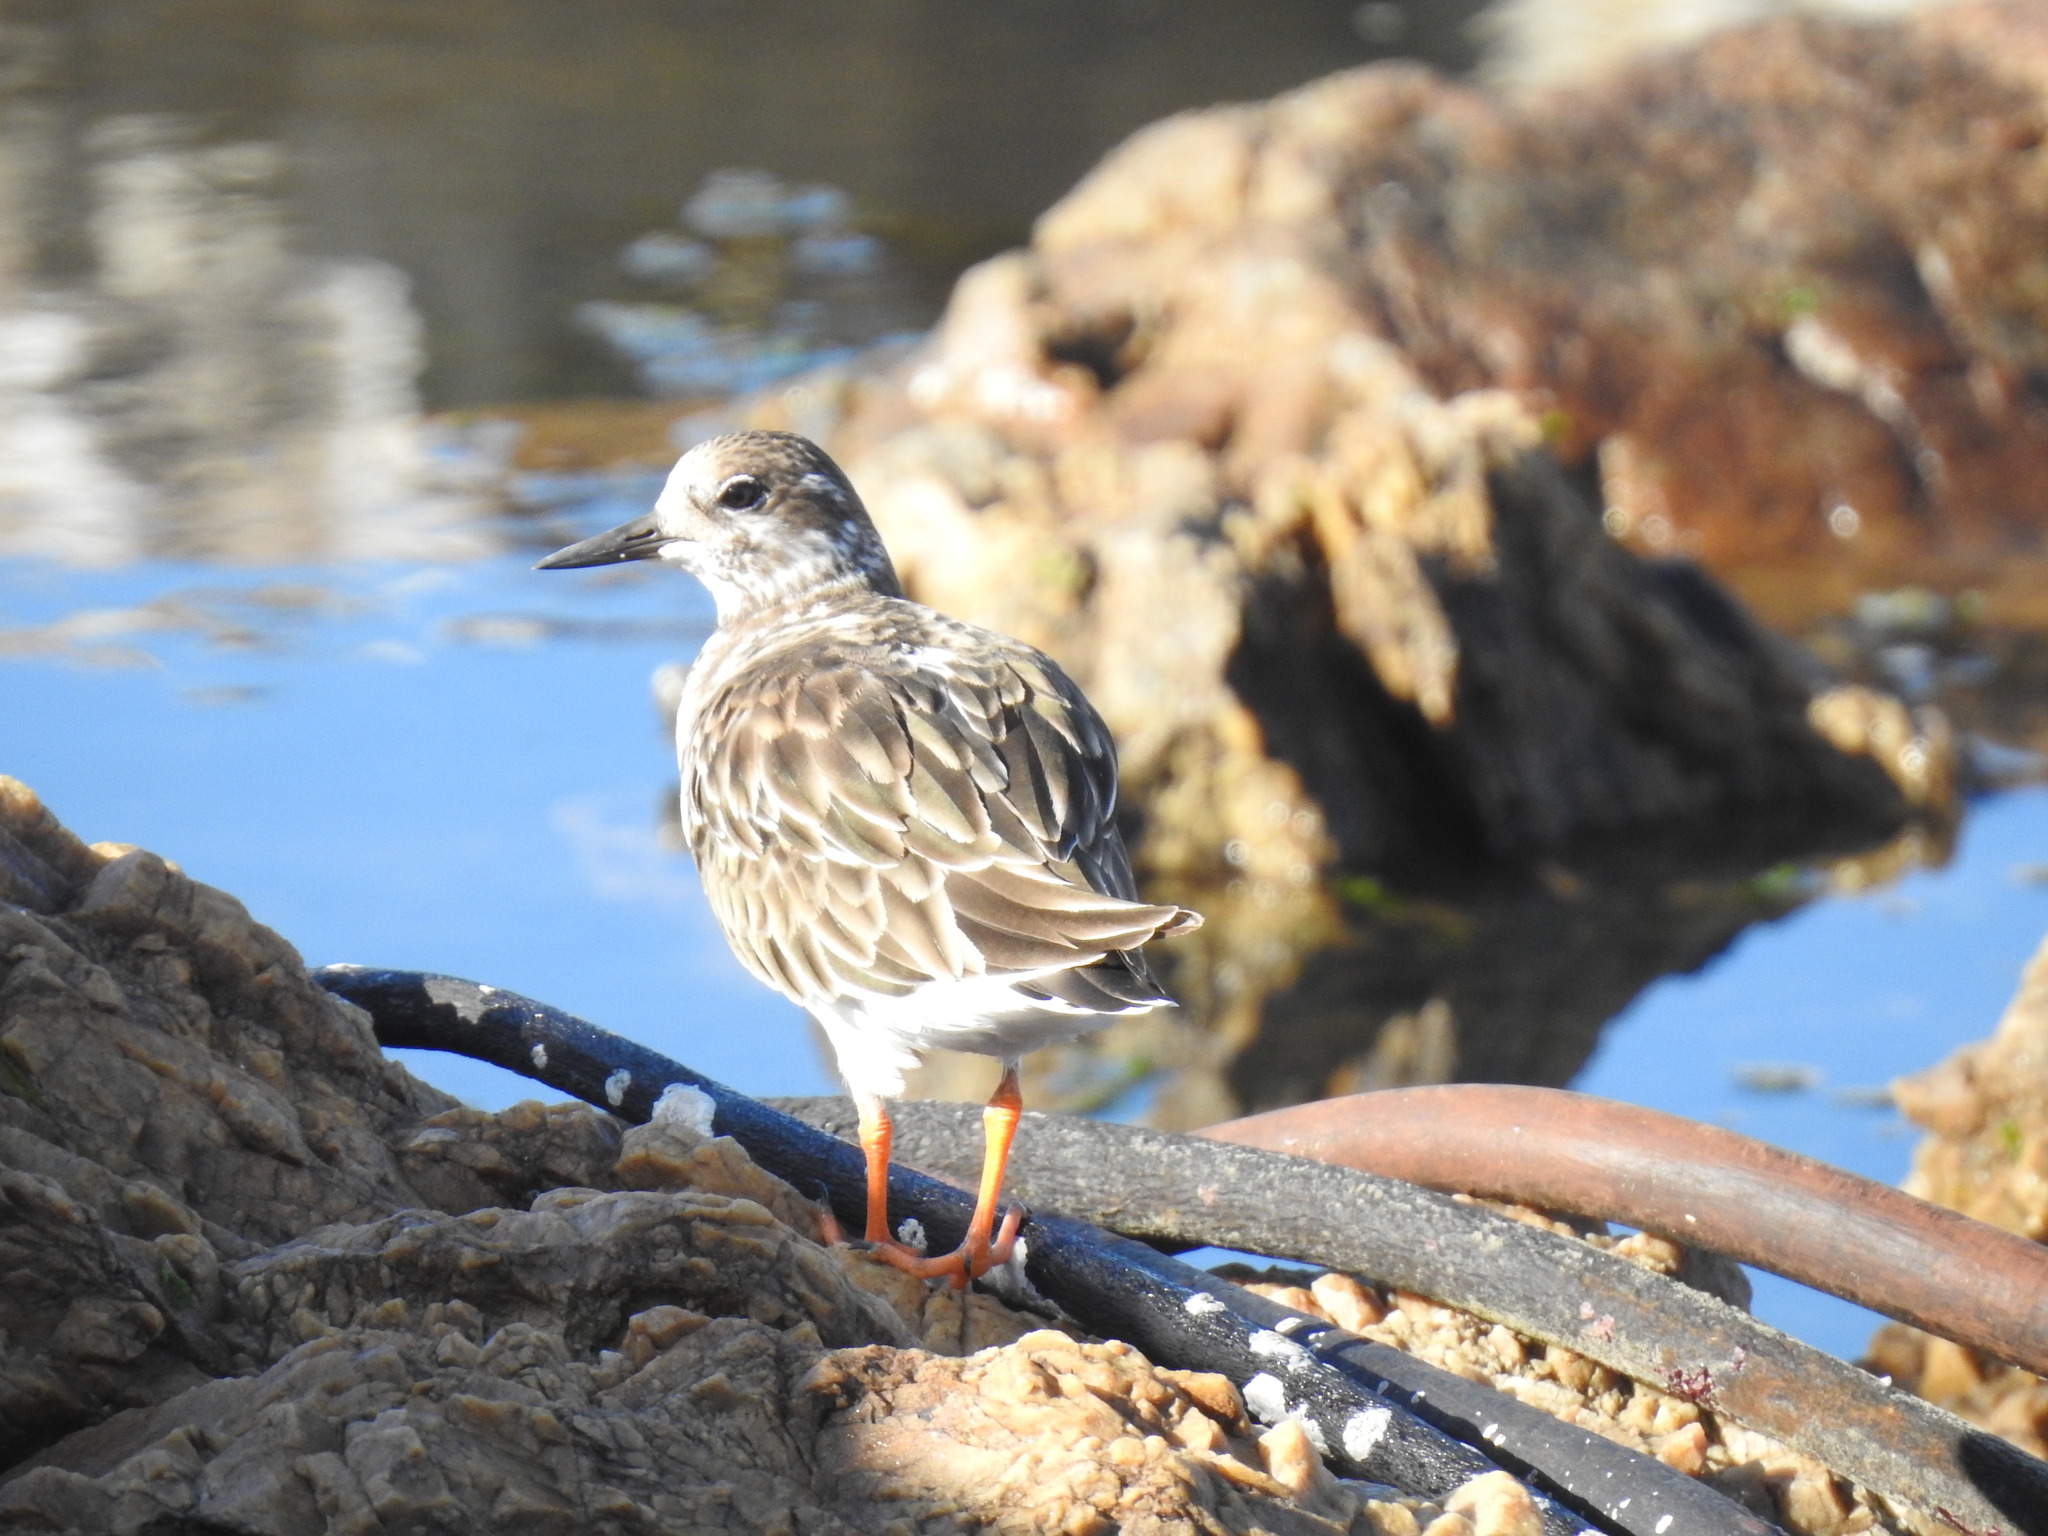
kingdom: Animalia
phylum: Chordata
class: Aves
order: Charadriiformes
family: Scolopacidae
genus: Arenaria
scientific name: Arenaria interpres
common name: Ruddy turnstone
